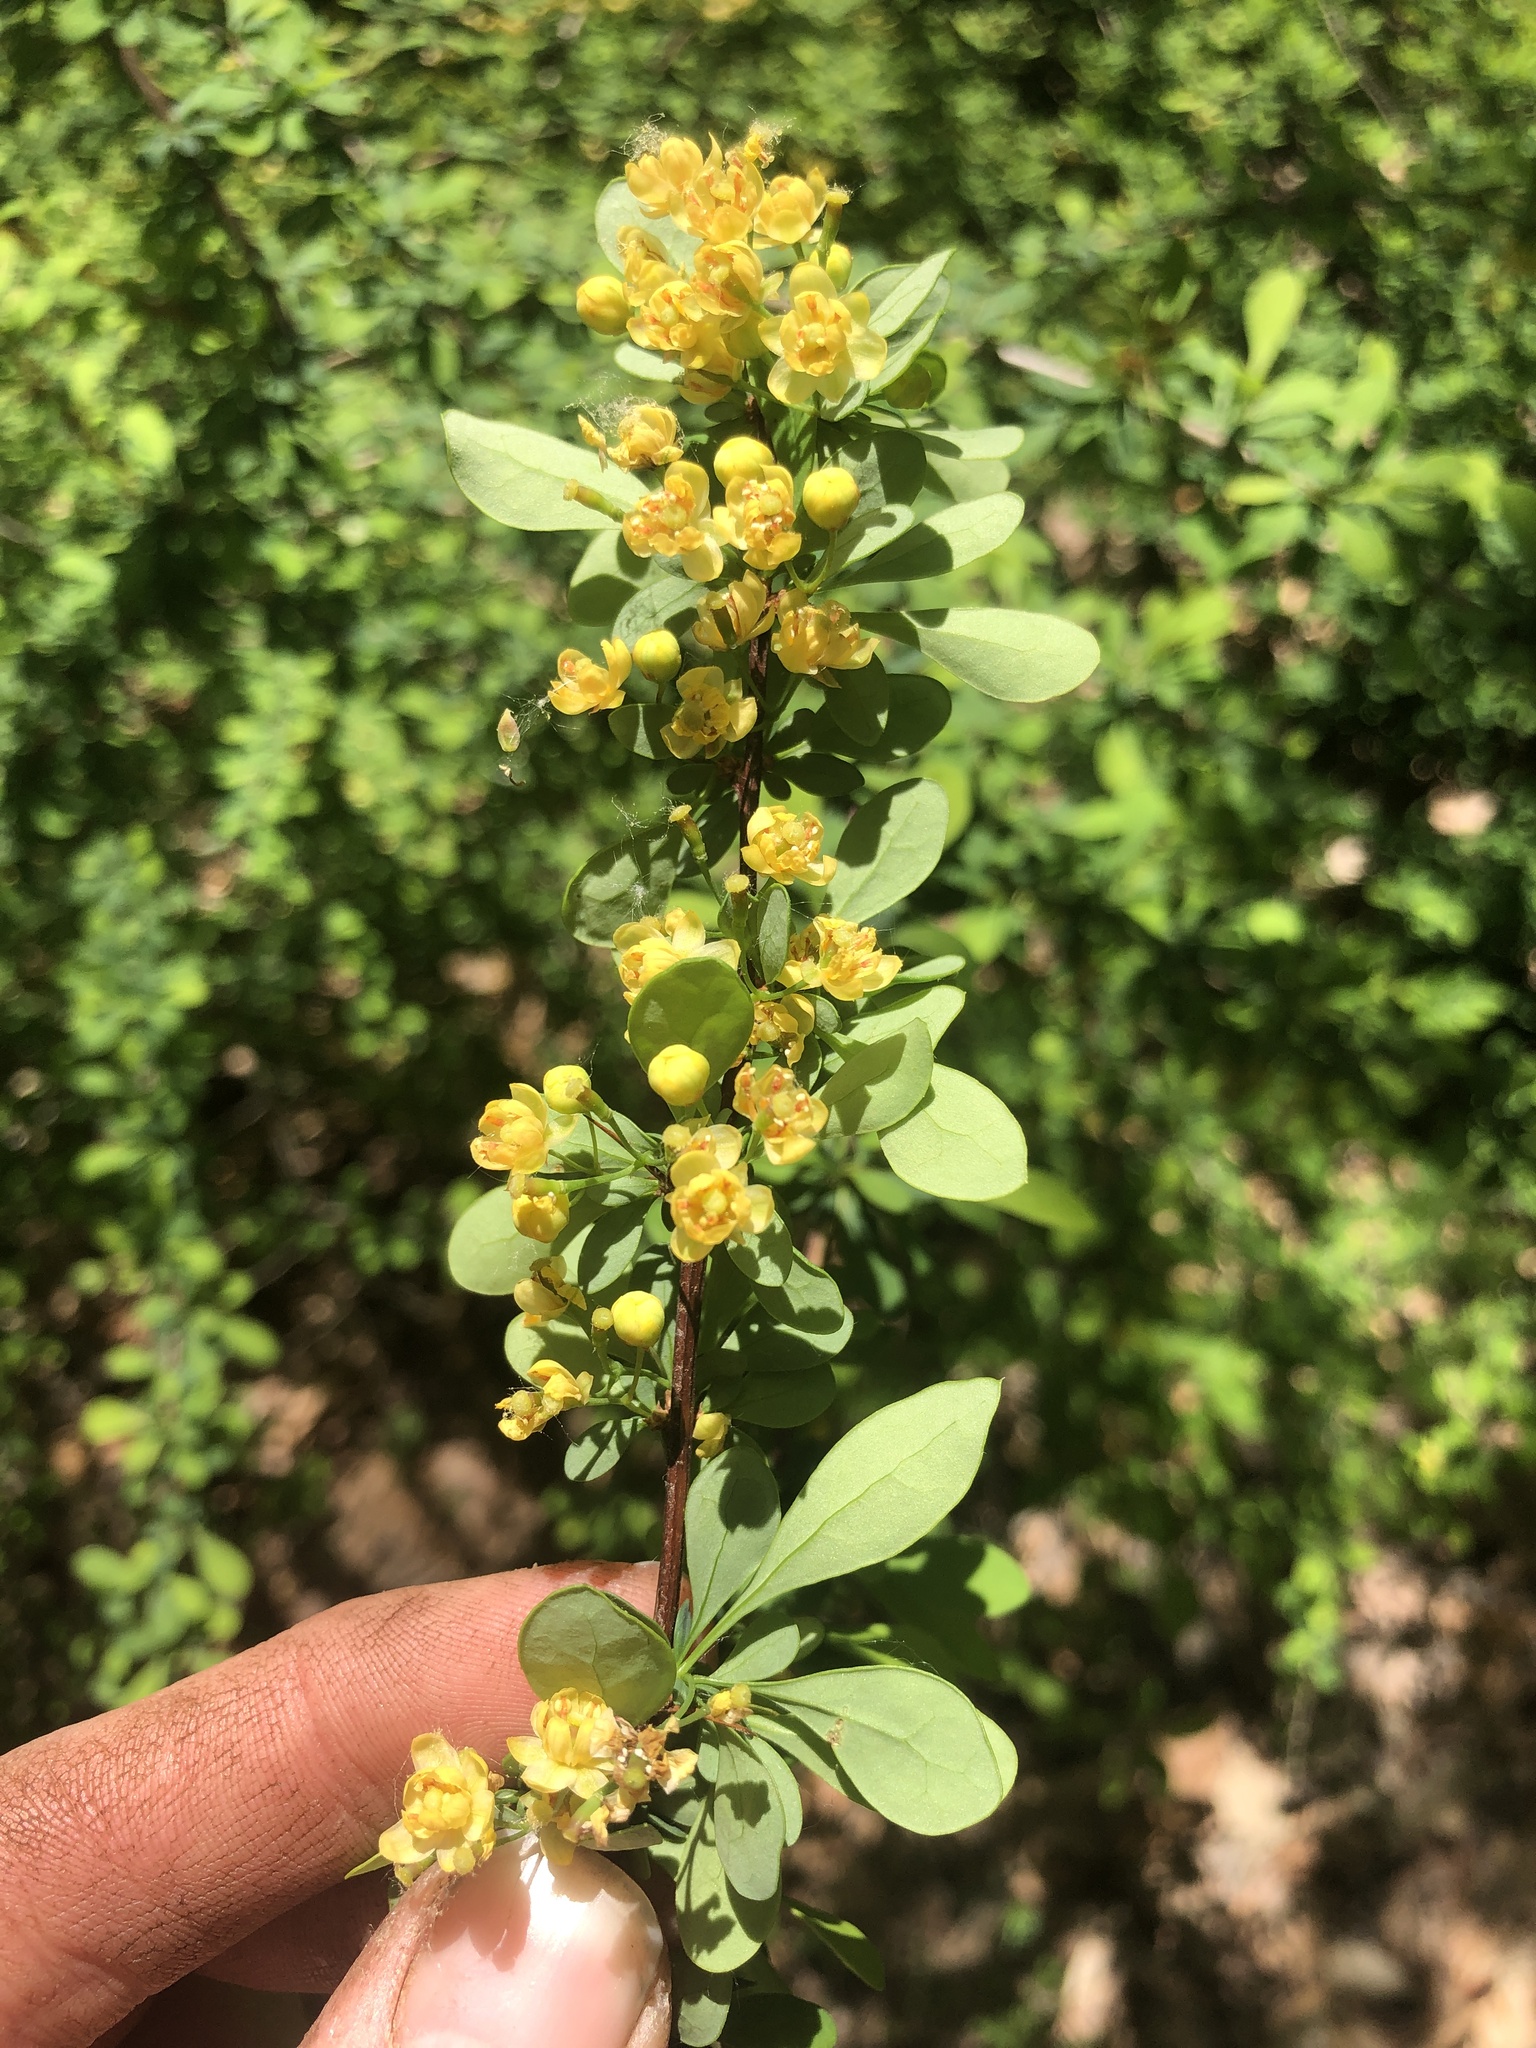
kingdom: Plantae
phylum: Tracheophyta
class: Magnoliopsida
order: Ranunculales
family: Berberidaceae
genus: Berberis
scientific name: Berberis thunbergii
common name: Japanese barberry
